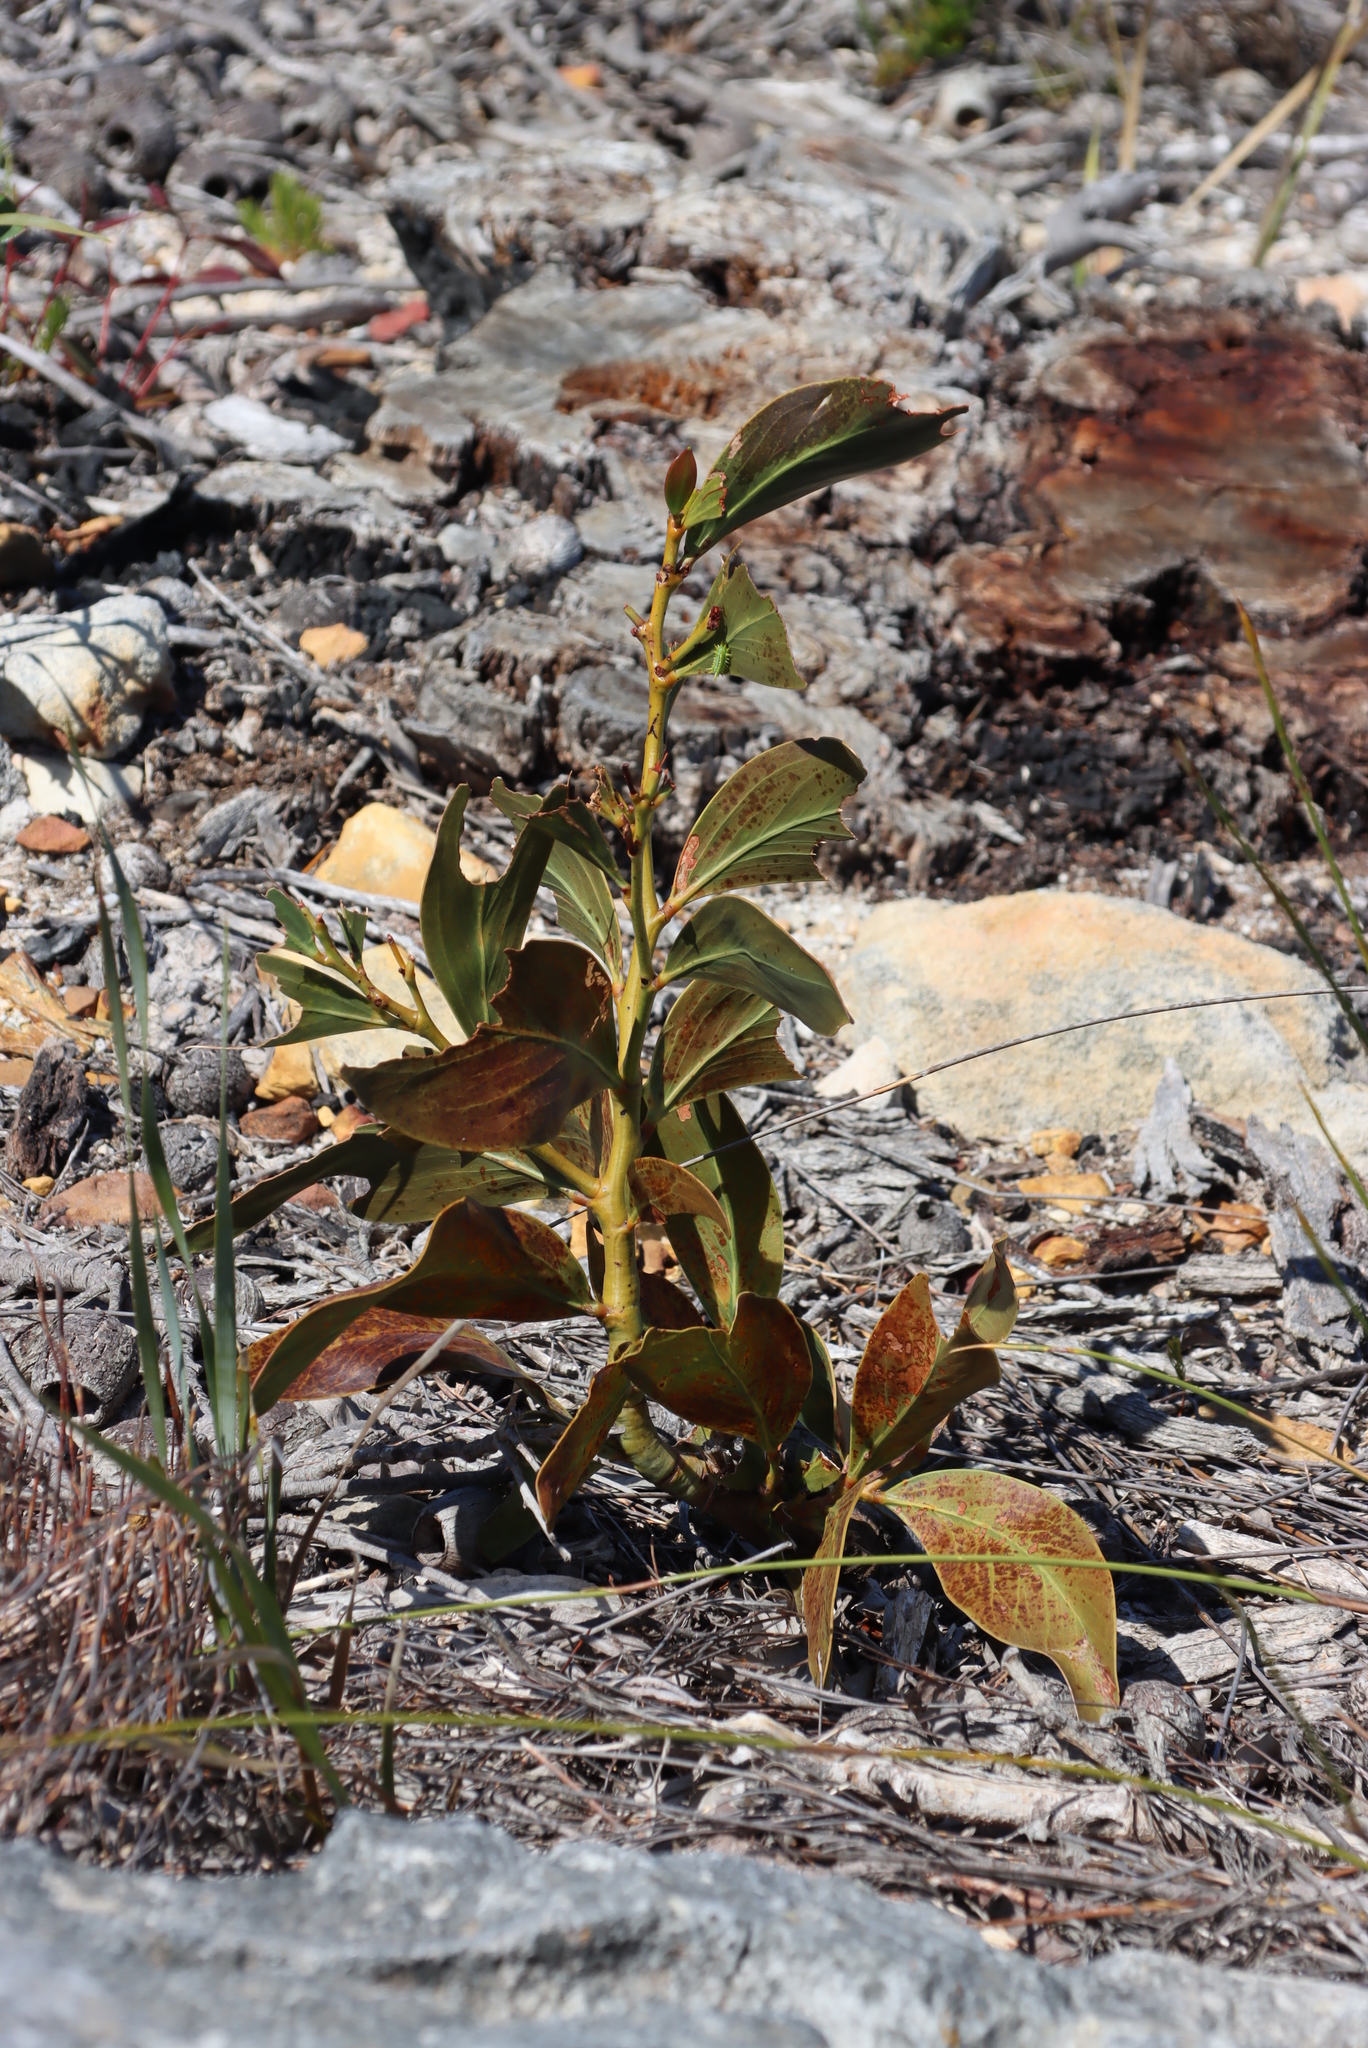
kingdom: Plantae
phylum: Tracheophyta
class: Magnoliopsida
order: Fabales
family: Fabaceae
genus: Acacia
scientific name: Acacia pycnantha
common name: Golden wattle
